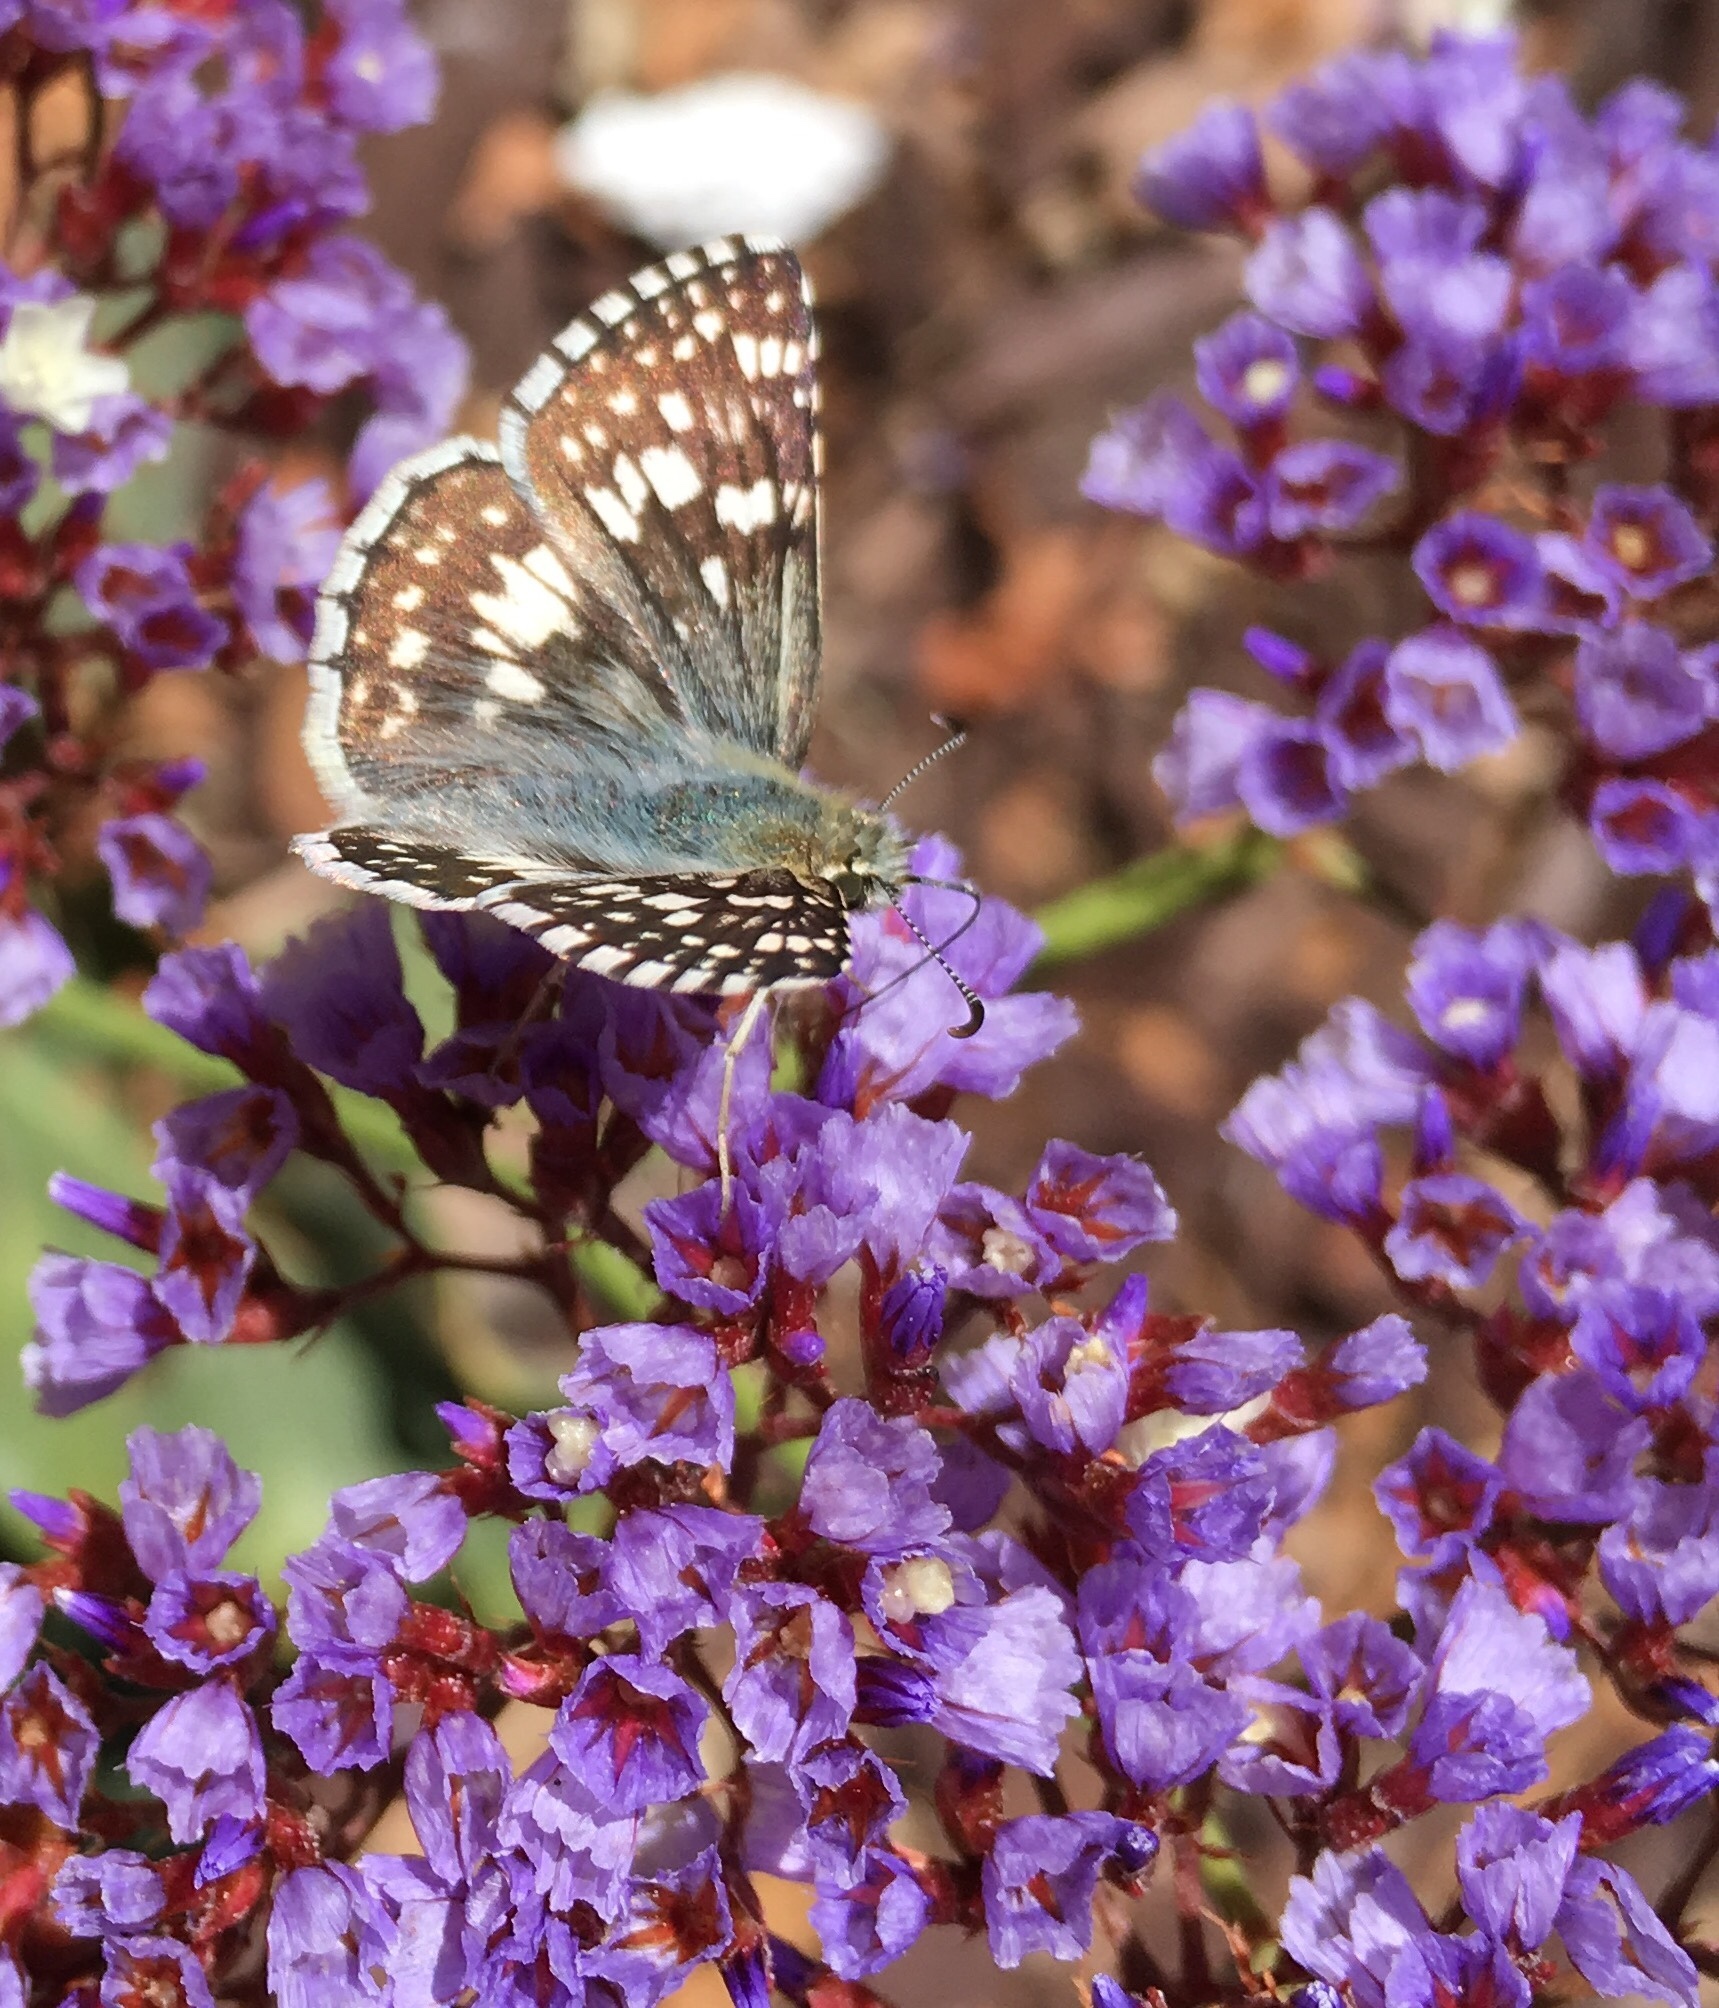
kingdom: Animalia
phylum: Arthropoda
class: Insecta
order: Lepidoptera
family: Hesperiidae
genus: Burnsius
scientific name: Burnsius communis
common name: Common checkered-skipper
